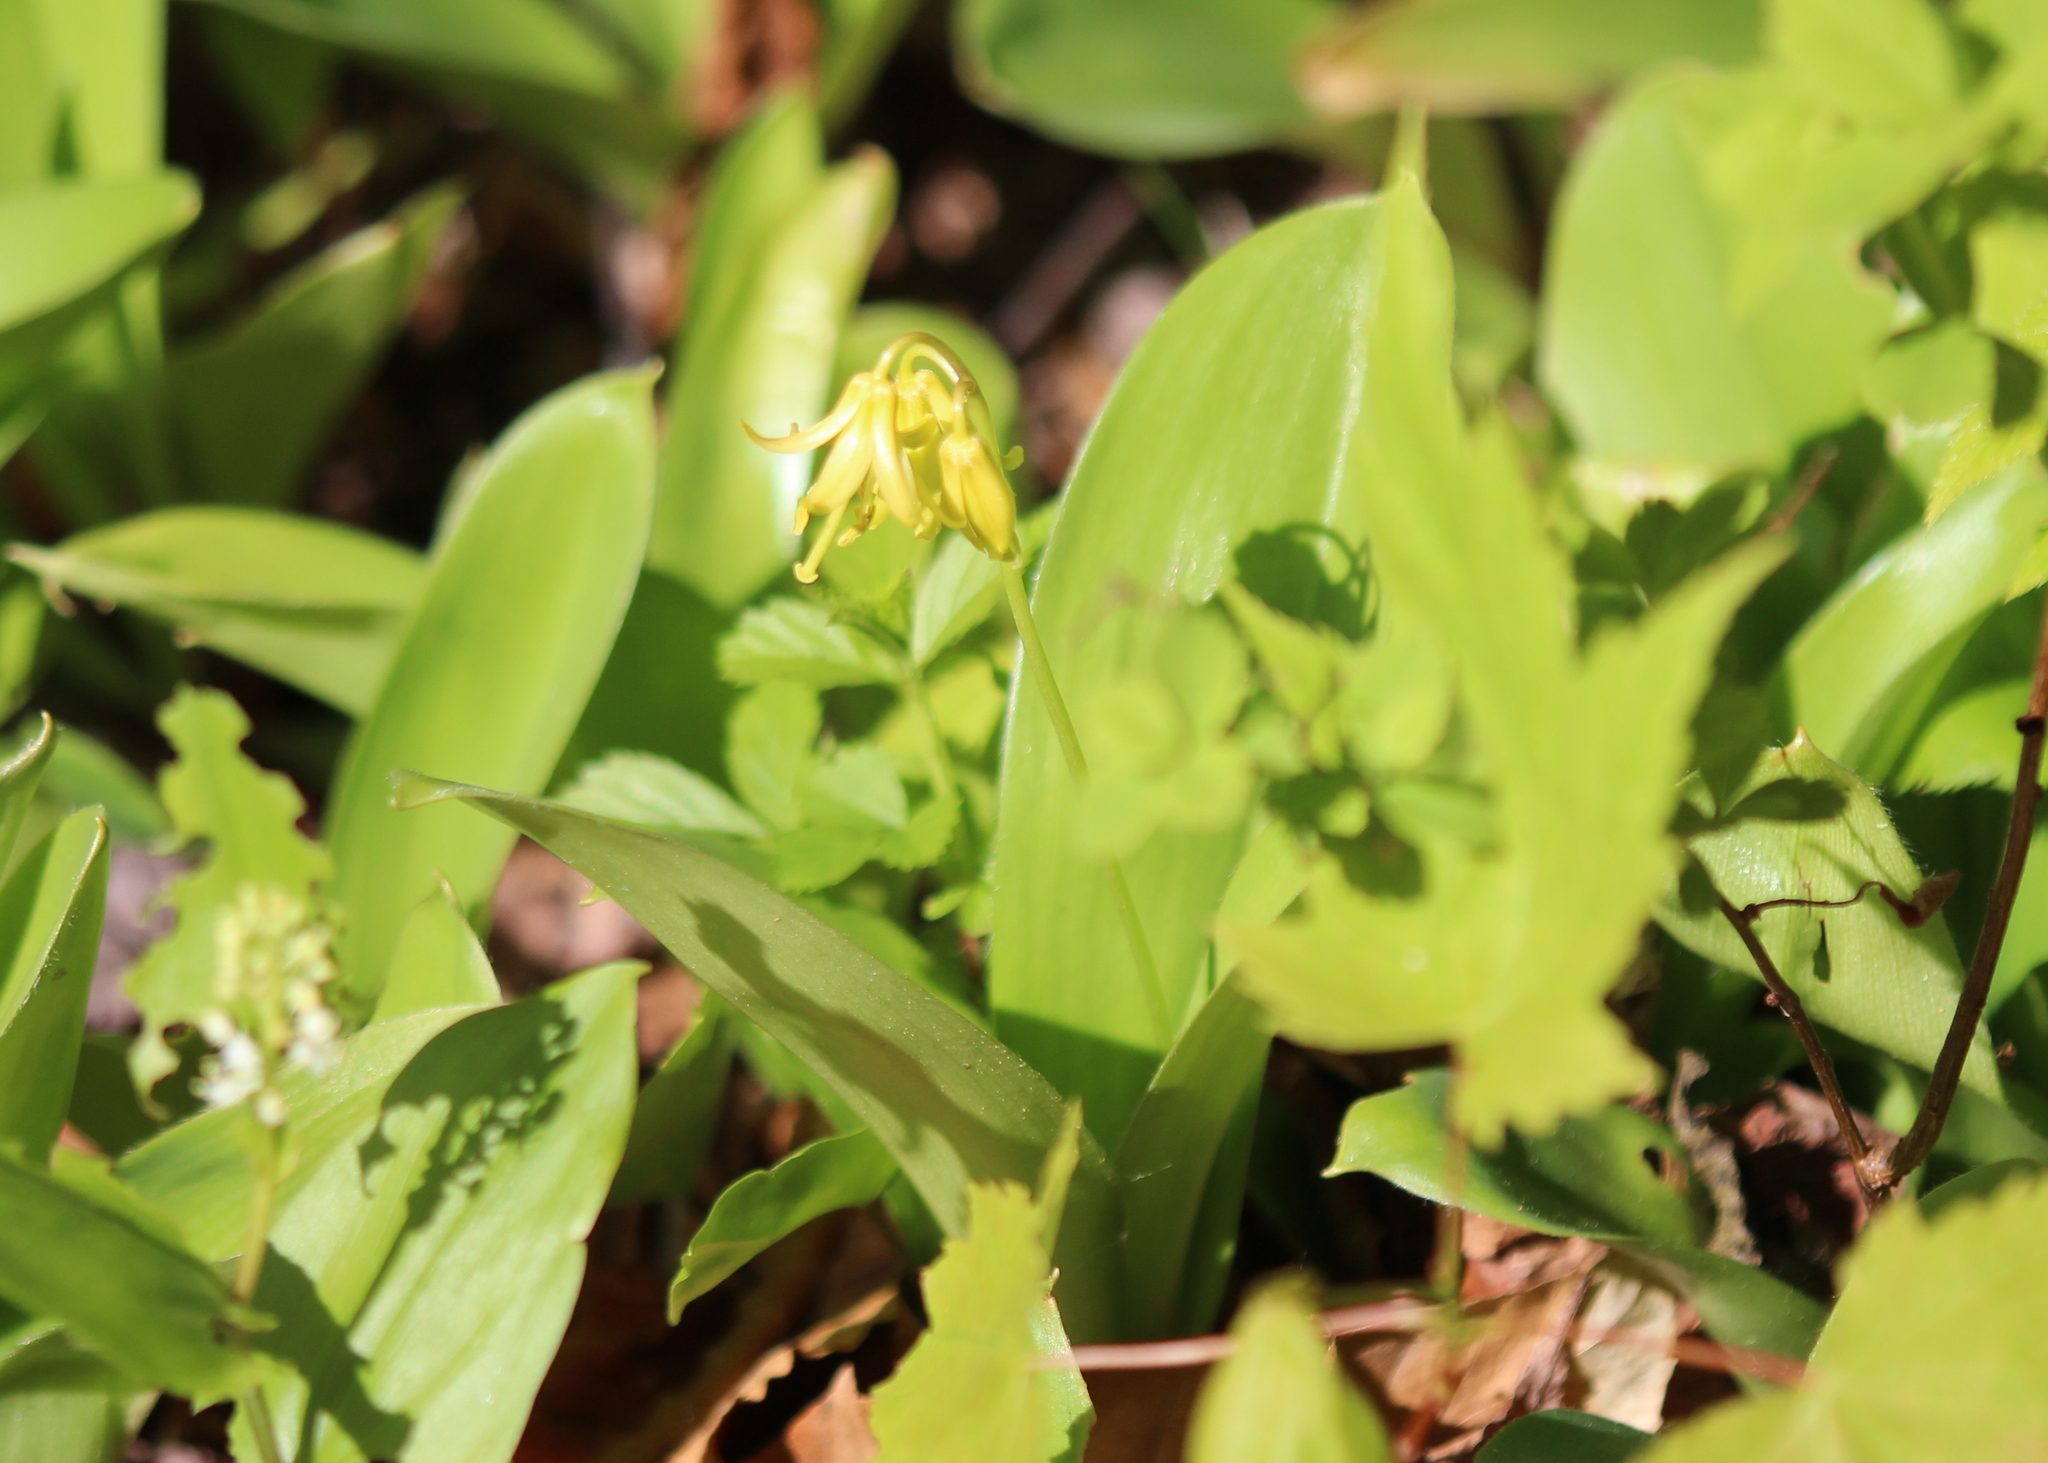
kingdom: Plantae
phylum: Tracheophyta
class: Liliopsida
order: Liliales
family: Liliaceae
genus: Clintonia
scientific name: Clintonia borealis
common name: Yellow clintonia
